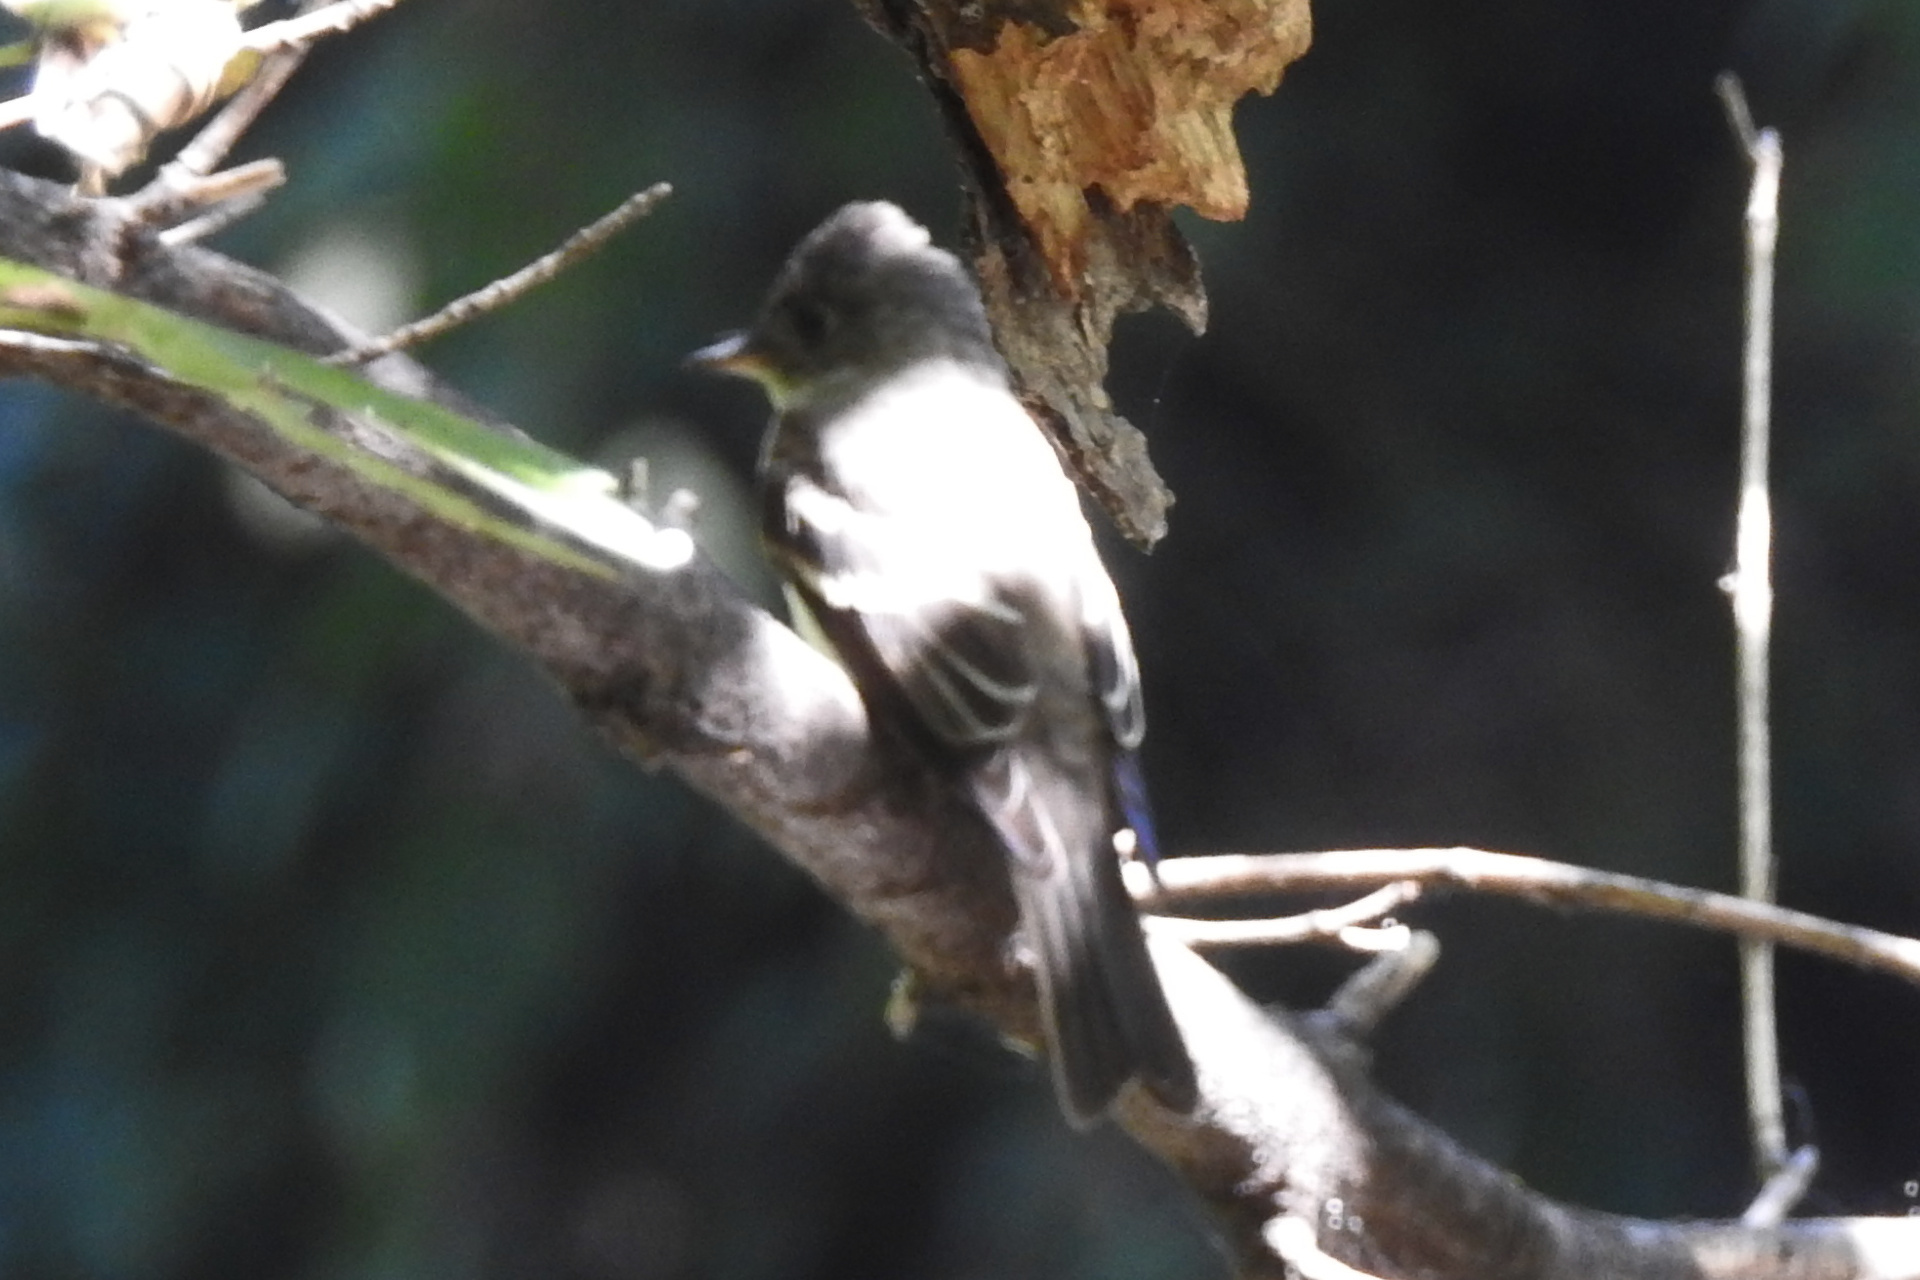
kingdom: Animalia
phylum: Chordata
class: Aves
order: Passeriformes
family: Tyrannidae
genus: Contopus
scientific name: Contopus virens
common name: Eastern wood-pewee
